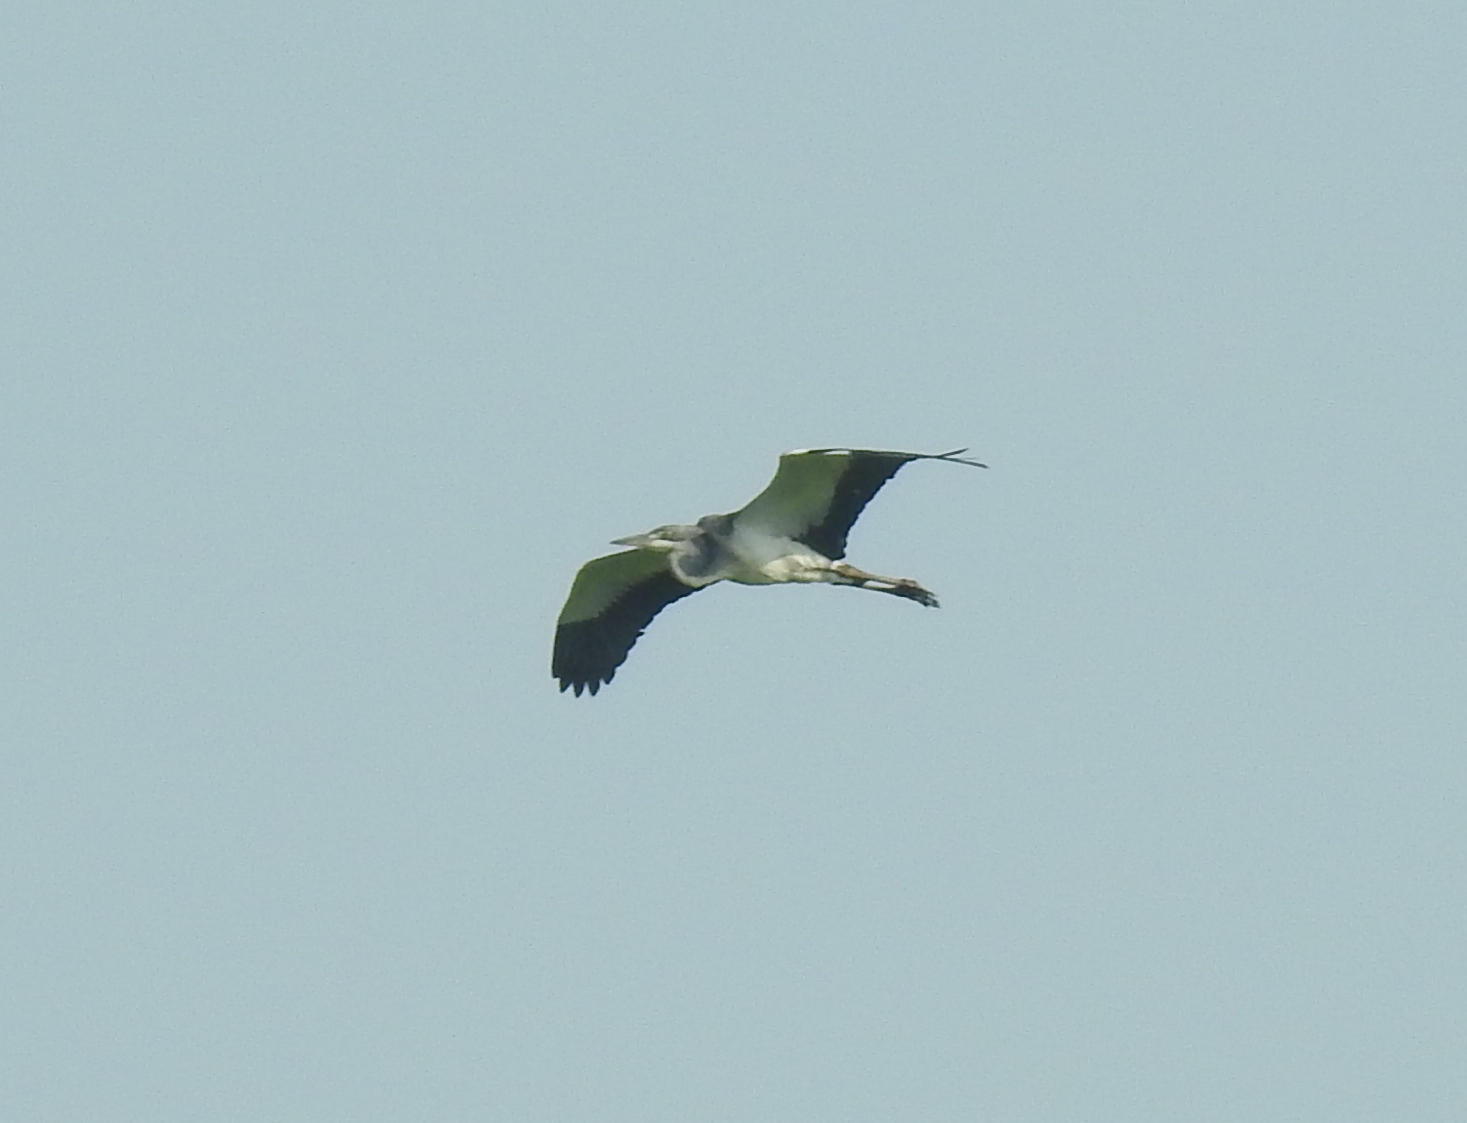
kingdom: Animalia
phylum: Chordata
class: Aves
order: Pelecaniformes
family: Ardeidae
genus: Ardea
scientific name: Ardea melanocephala
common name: Black-headed heron
